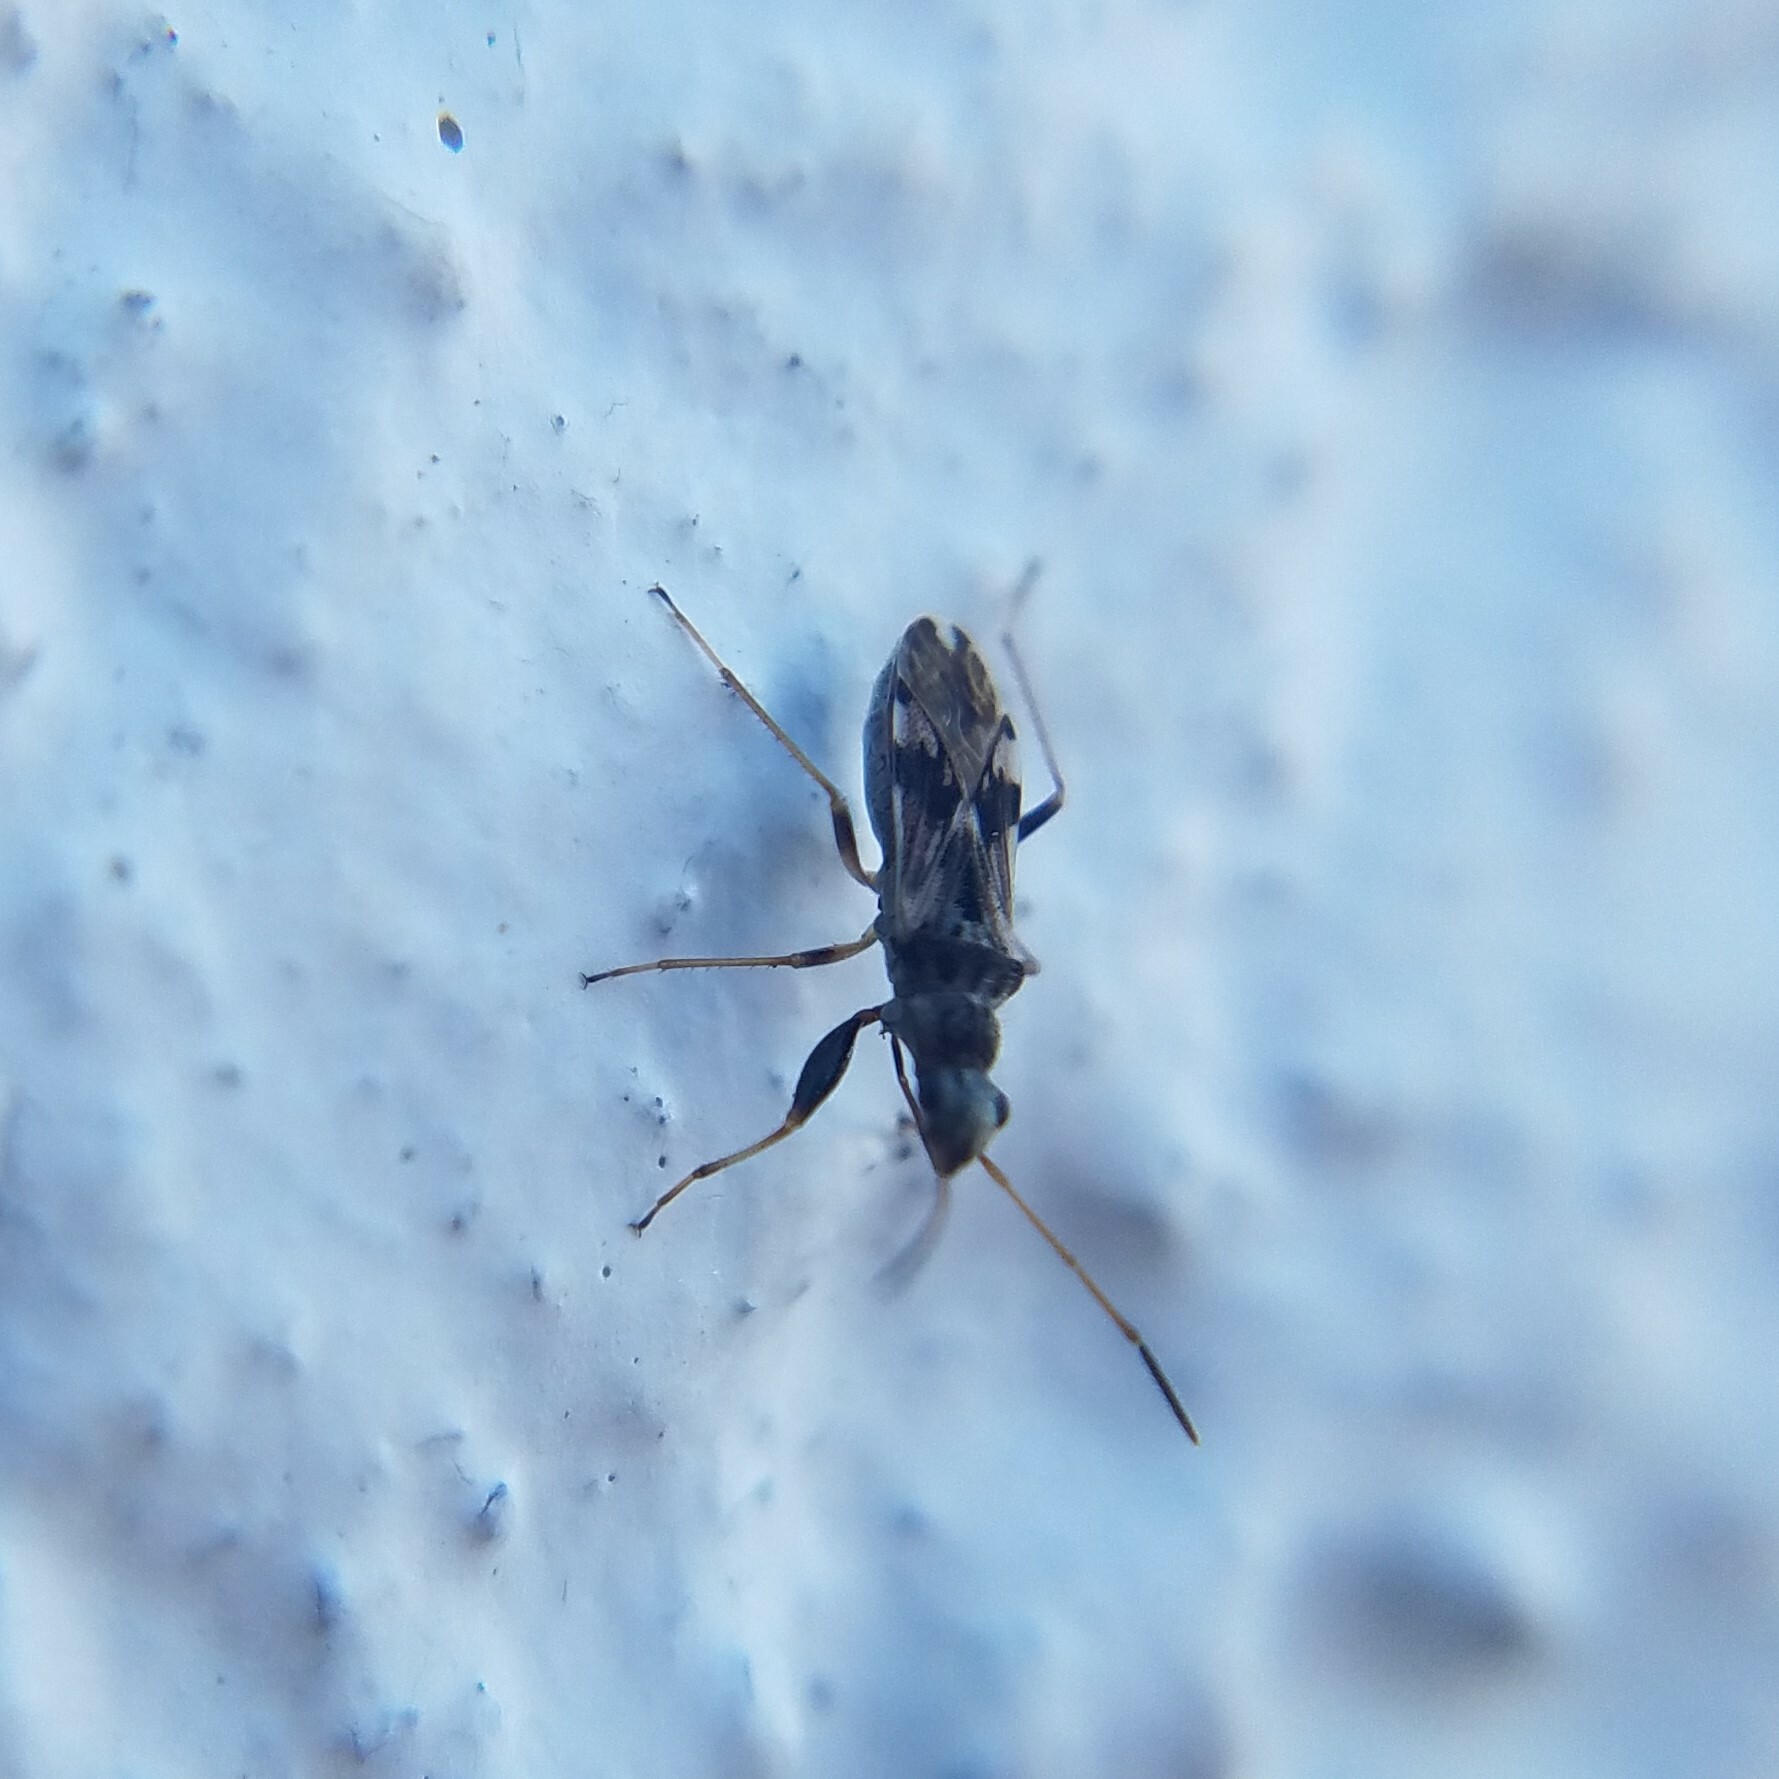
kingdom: Animalia
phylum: Arthropoda
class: Insecta
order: Hemiptera
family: Rhyparochromidae
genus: Neopamera
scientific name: Neopamera bilobata
